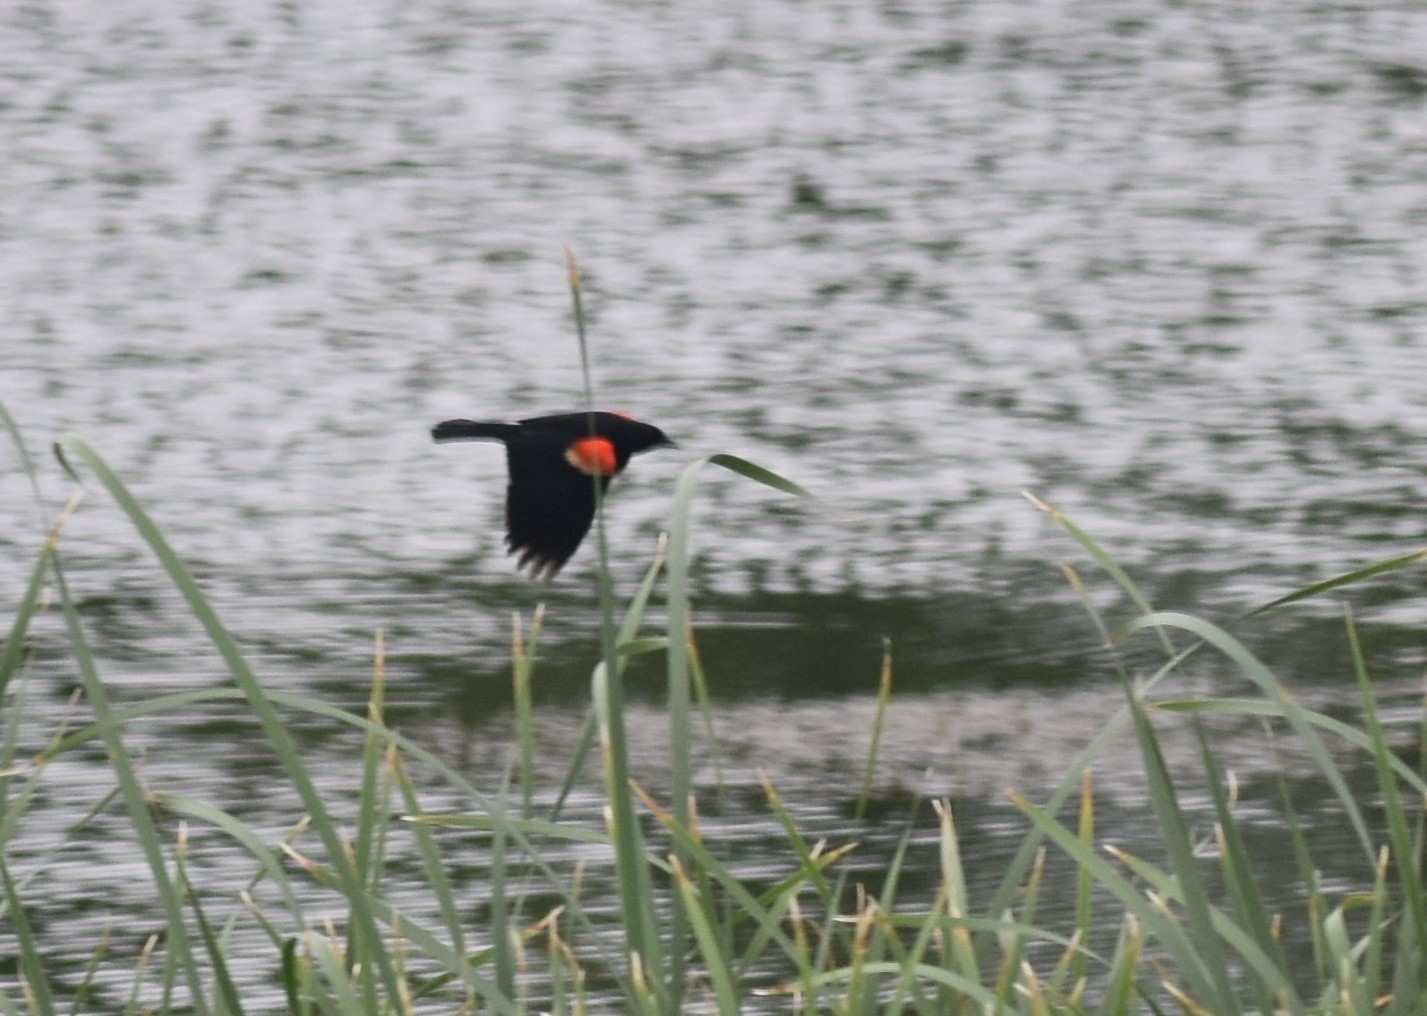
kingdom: Animalia
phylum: Chordata
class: Aves
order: Passeriformes
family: Icteridae
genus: Agelaius
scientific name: Agelaius phoeniceus
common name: Red-winged blackbird
